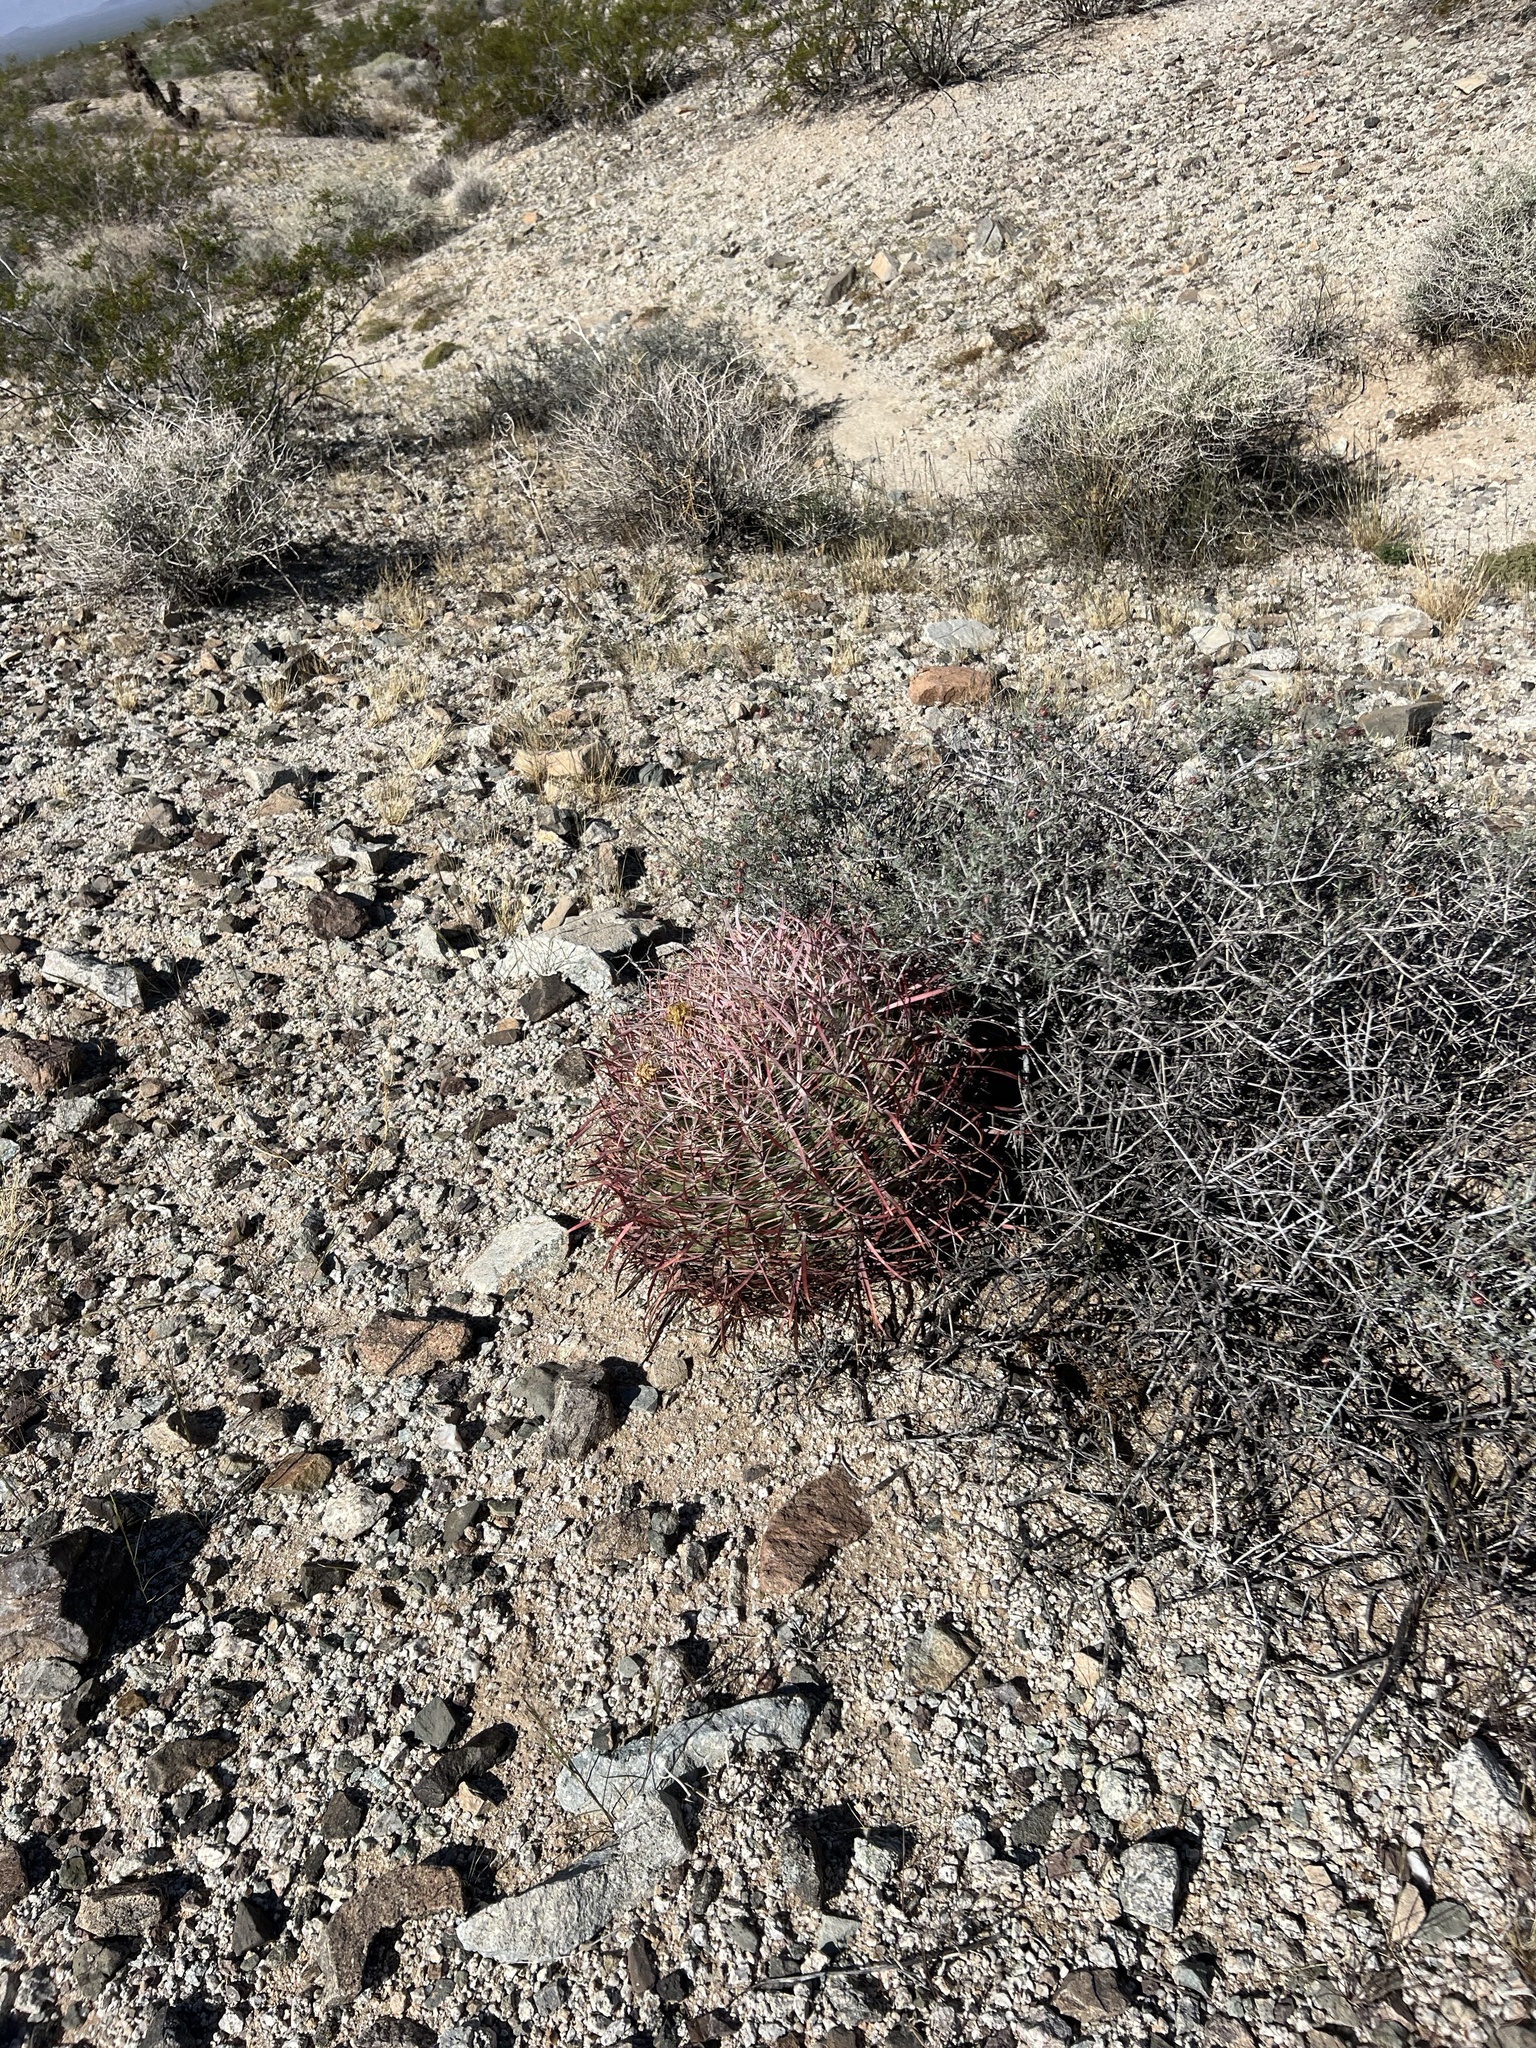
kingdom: Plantae
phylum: Tracheophyta
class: Magnoliopsida
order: Caryophyllales
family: Cactaceae
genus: Ferocactus
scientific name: Ferocactus cylindraceus
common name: California barrel cactus
